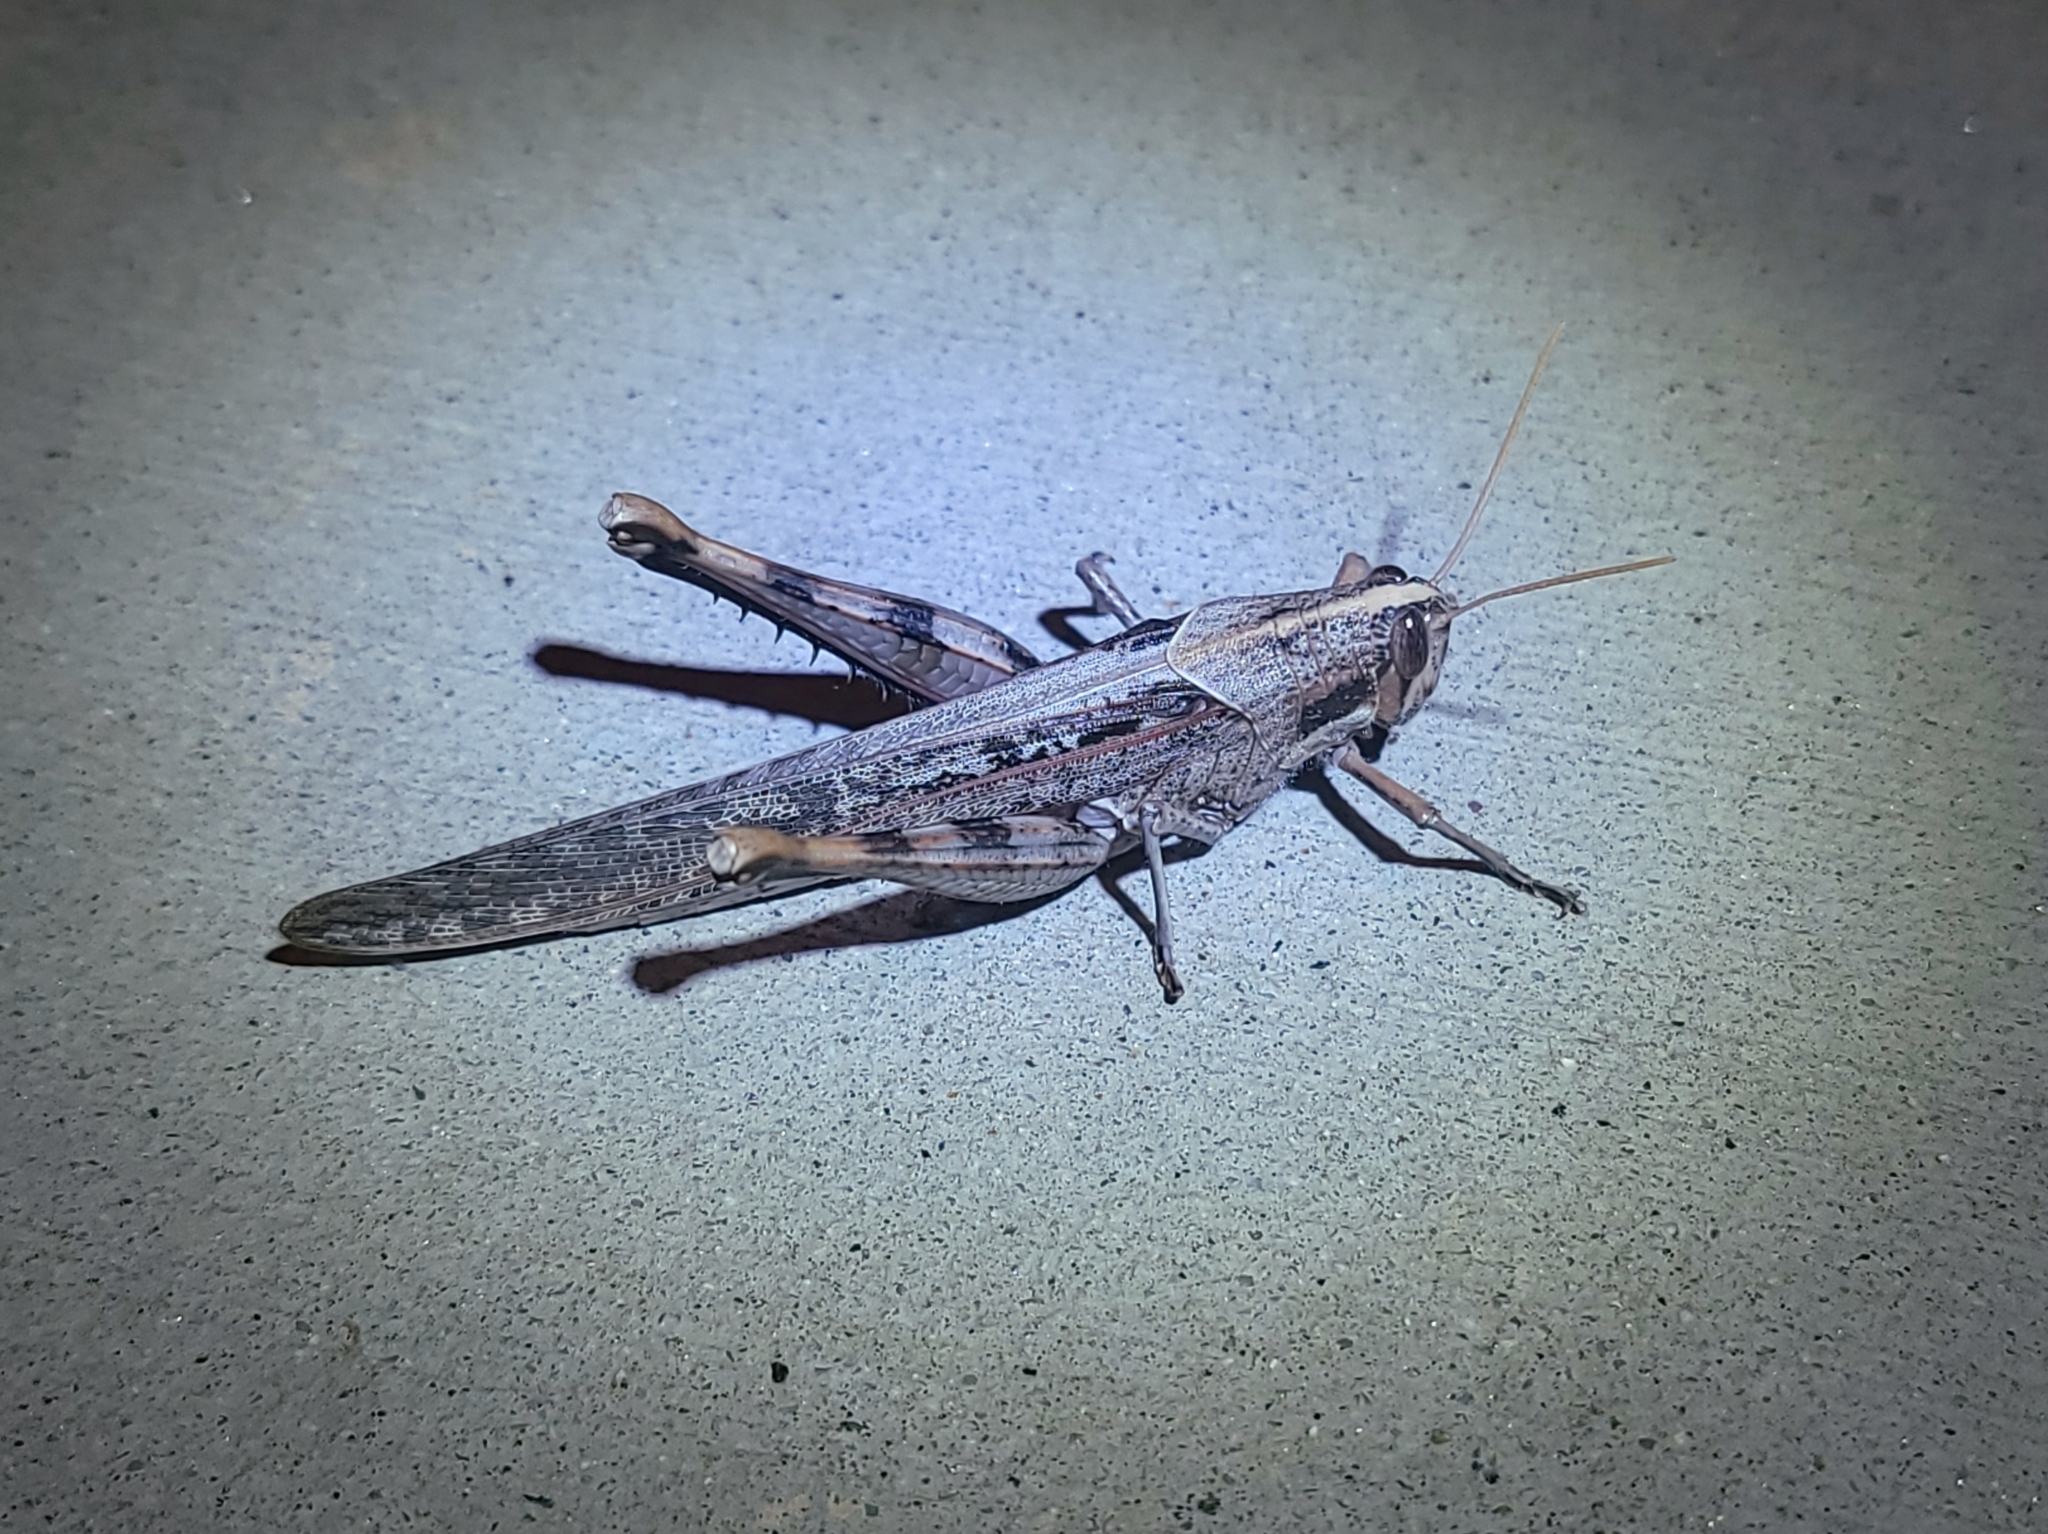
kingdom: Animalia
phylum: Arthropoda
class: Insecta
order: Orthoptera
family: Acrididae
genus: Schistocerca
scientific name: Schistocerca nitens
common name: Vagrant grasshopper
